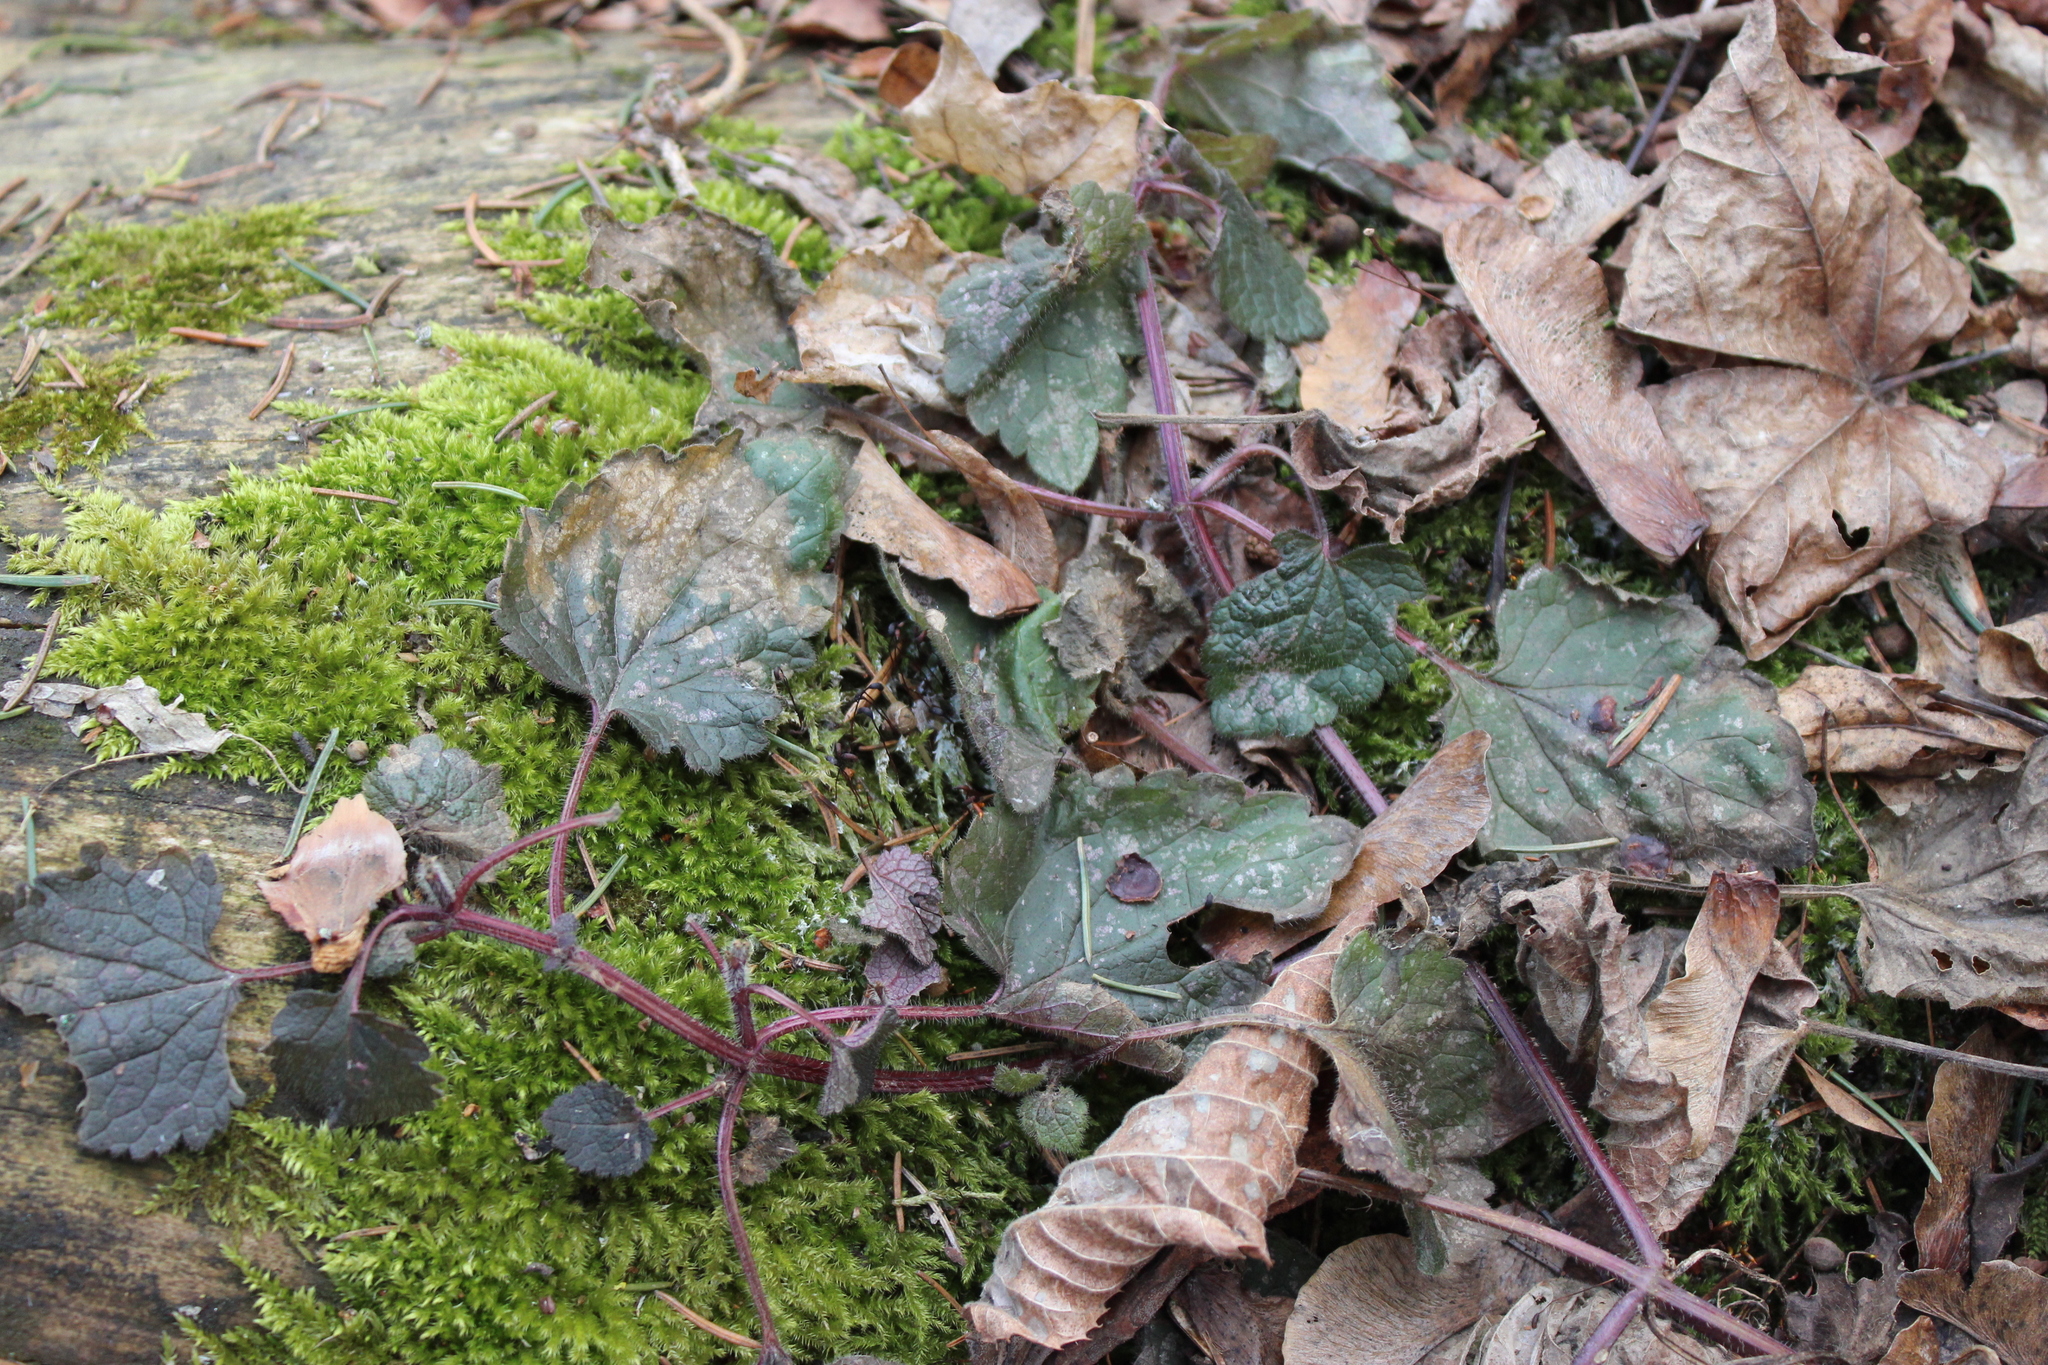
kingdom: Plantae
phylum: Tracheophyta
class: Magnoliopsida
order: Lamiales
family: Lamiaceae
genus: Lamium
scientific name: Lamium galeobdolon
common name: Yellow archangel
